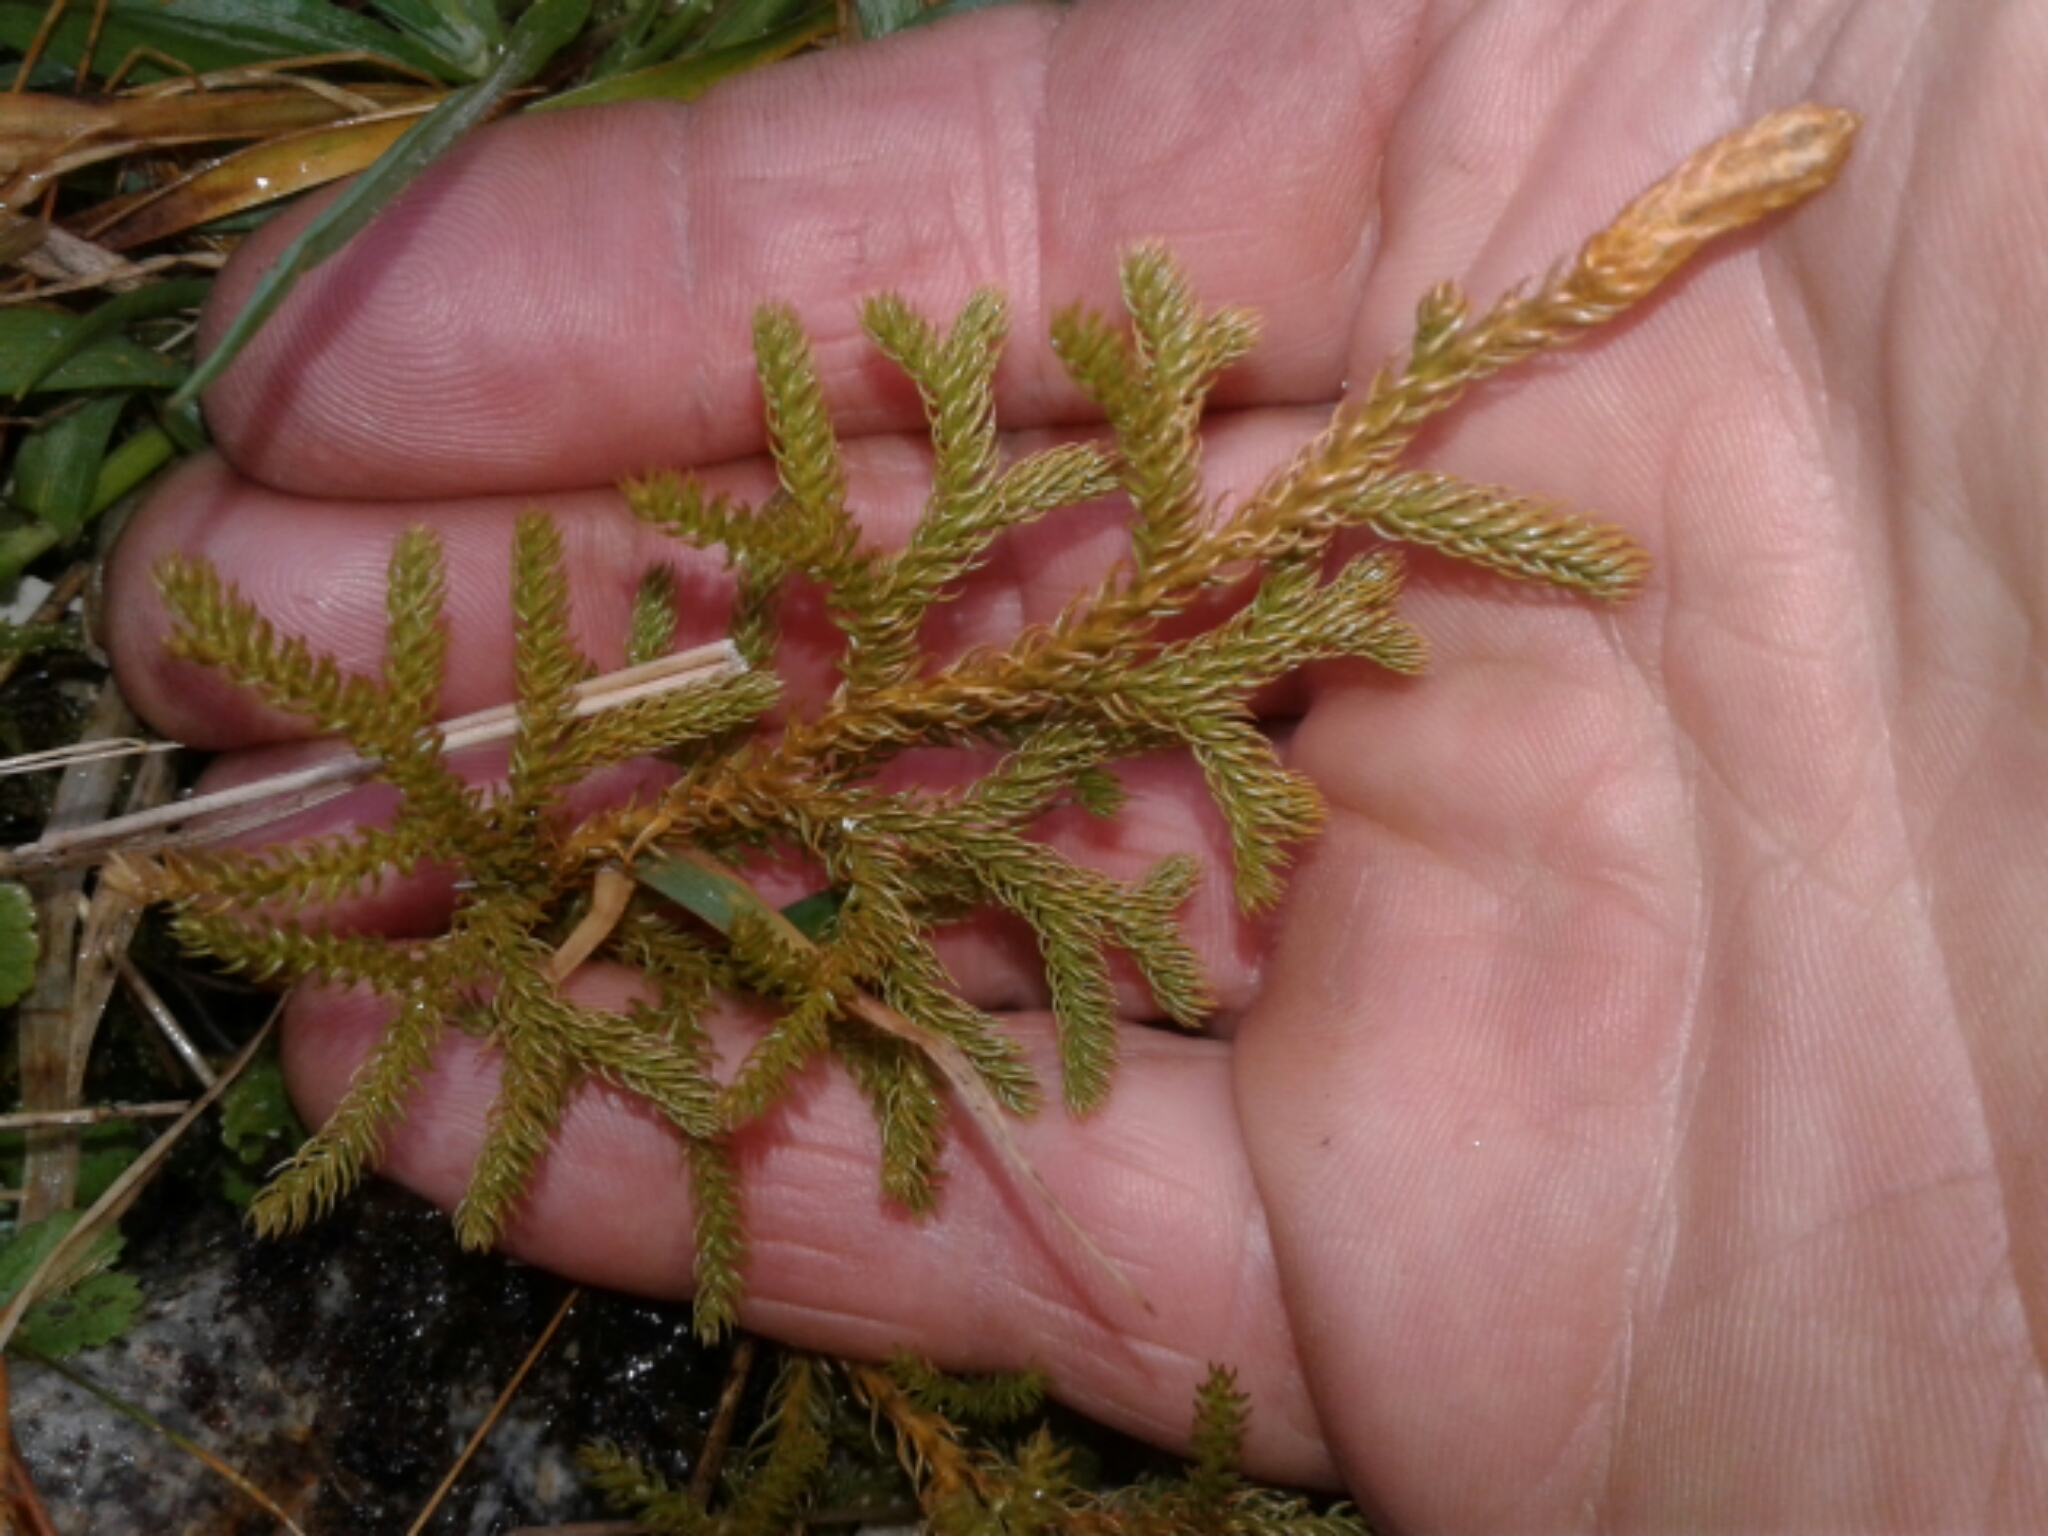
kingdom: Plantae
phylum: Tracheophyta
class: Lycopodiopsida
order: Lycopodiales
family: Lycopodiaceae
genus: Austrolycopodium
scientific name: Austrolycopodium fastigiatum
